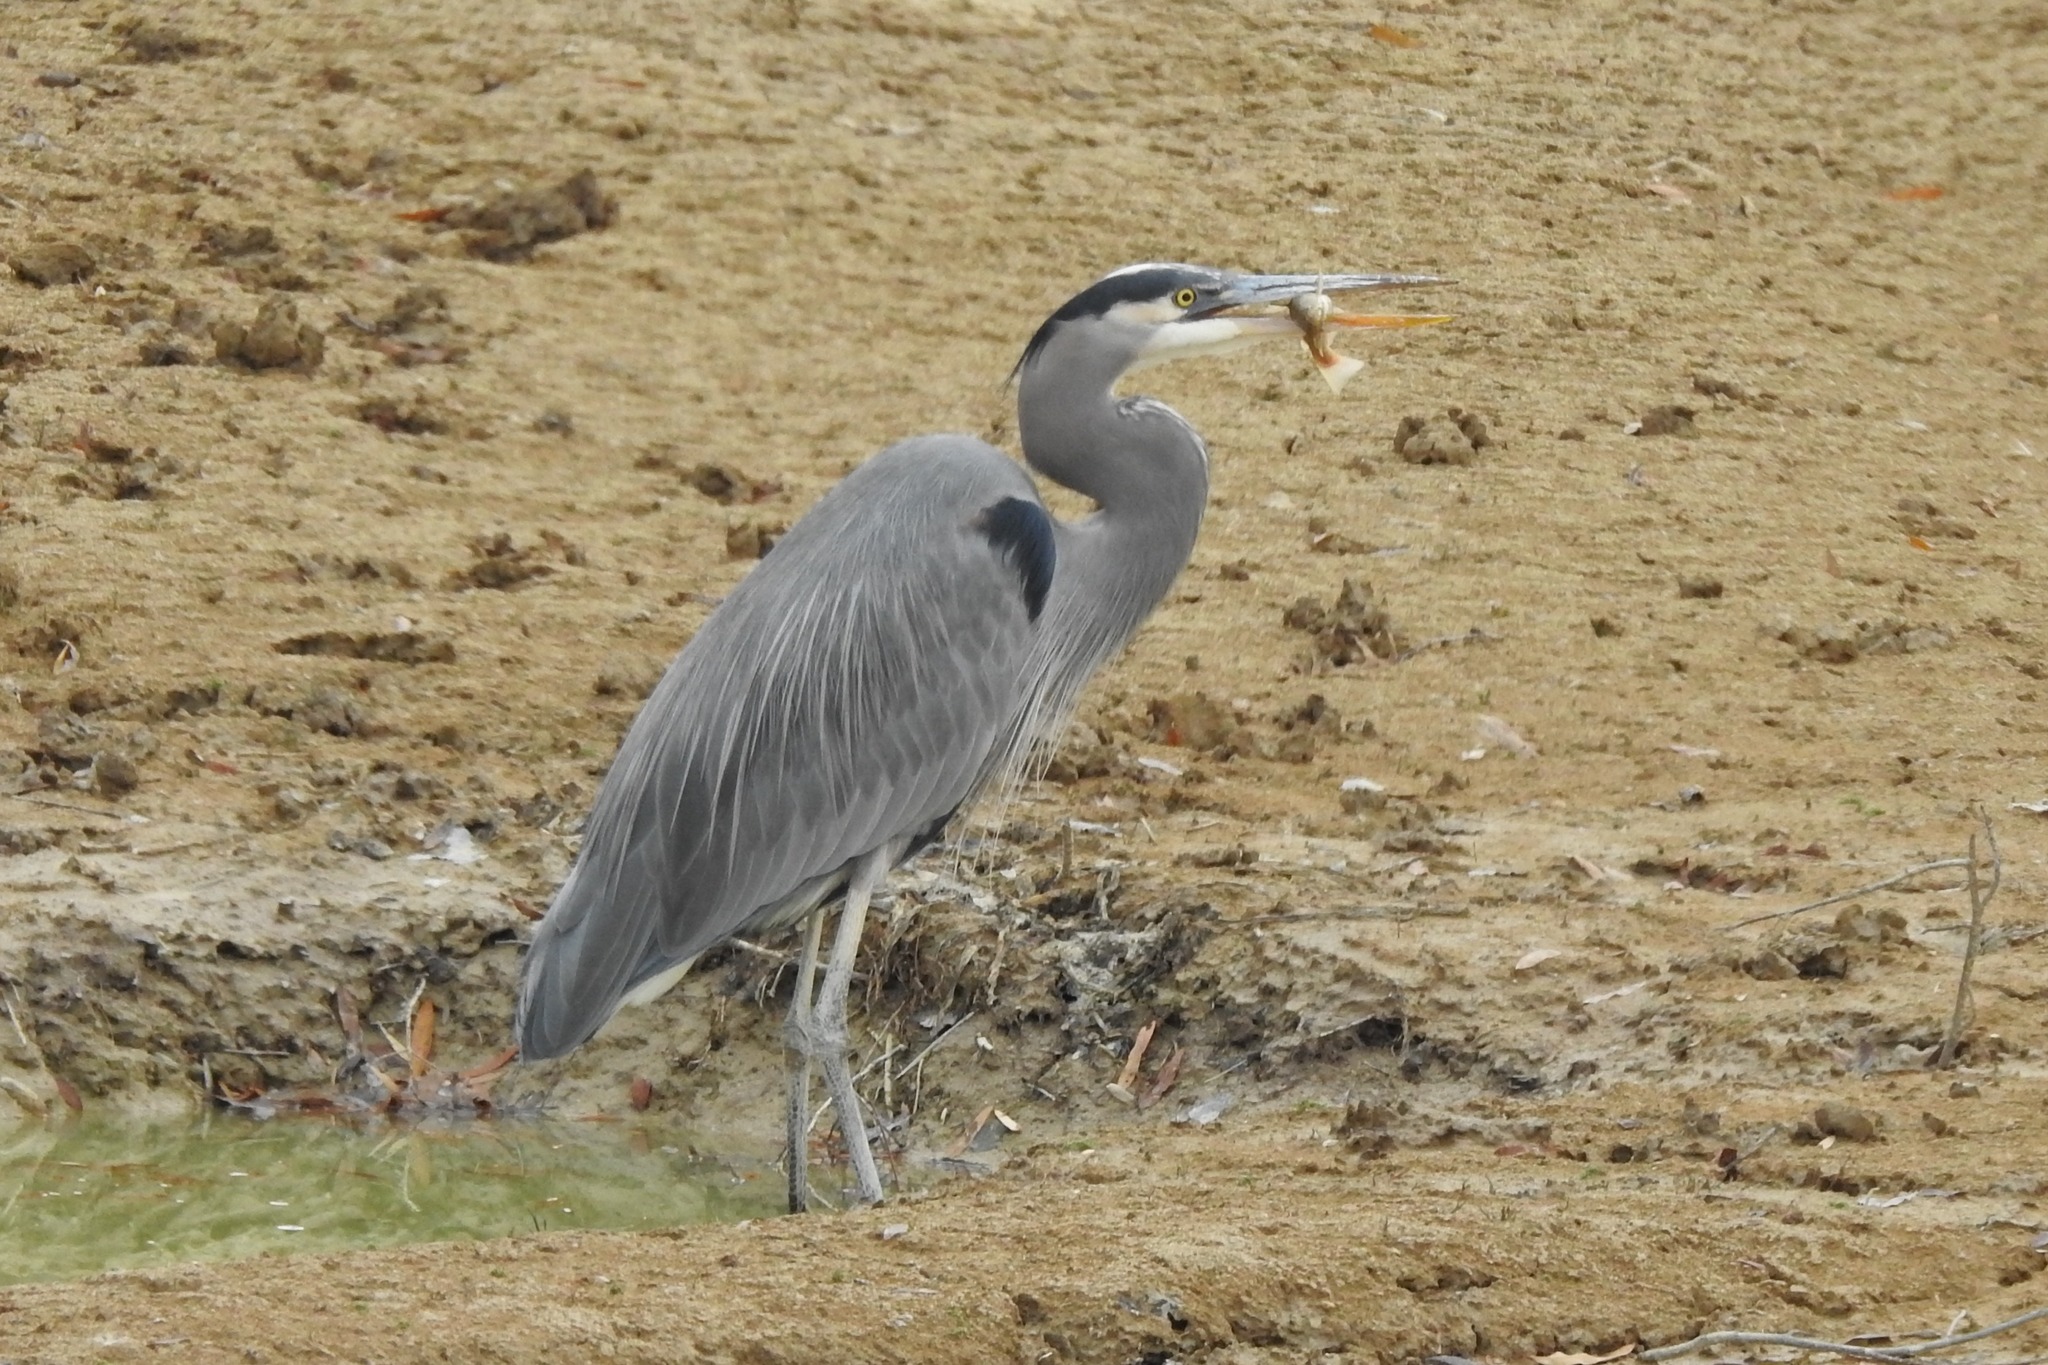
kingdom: Animalia
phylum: Chordata
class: Aves
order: Pelecaniformes
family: Ardeidae
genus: Ardea
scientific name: Ardea herodias
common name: Great blue heron
